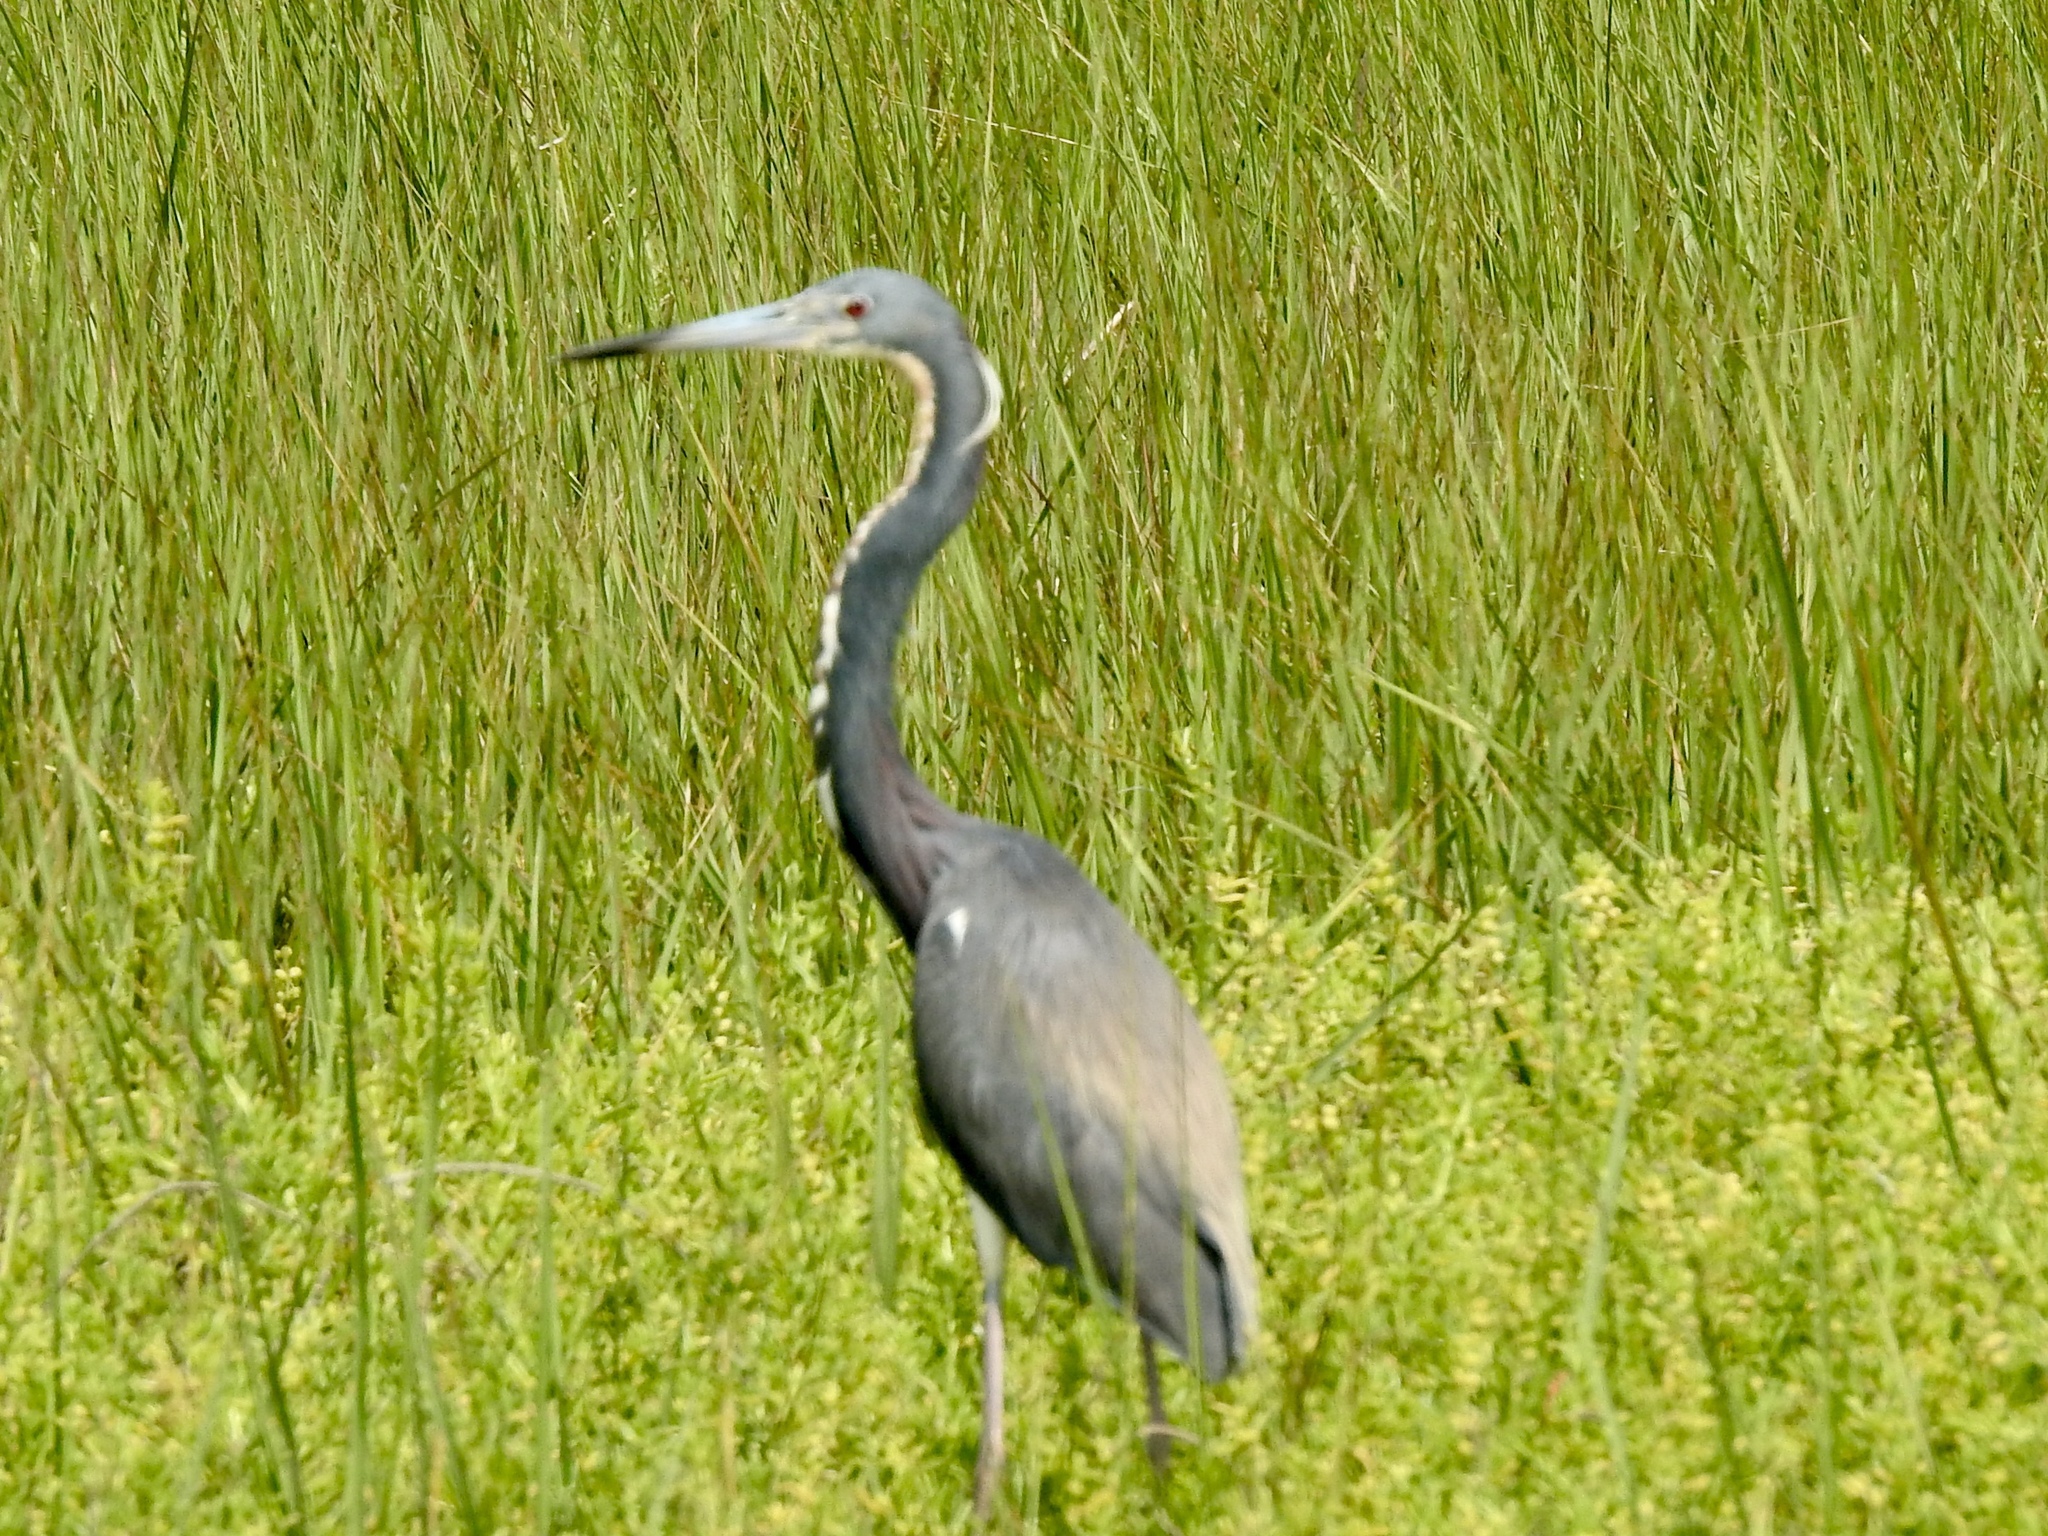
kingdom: Animalia
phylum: Chordata
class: Aves
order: Pelecaniformes
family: Ardeidae
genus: Egretta
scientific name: Egretta tricolor
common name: Tricolored heron
